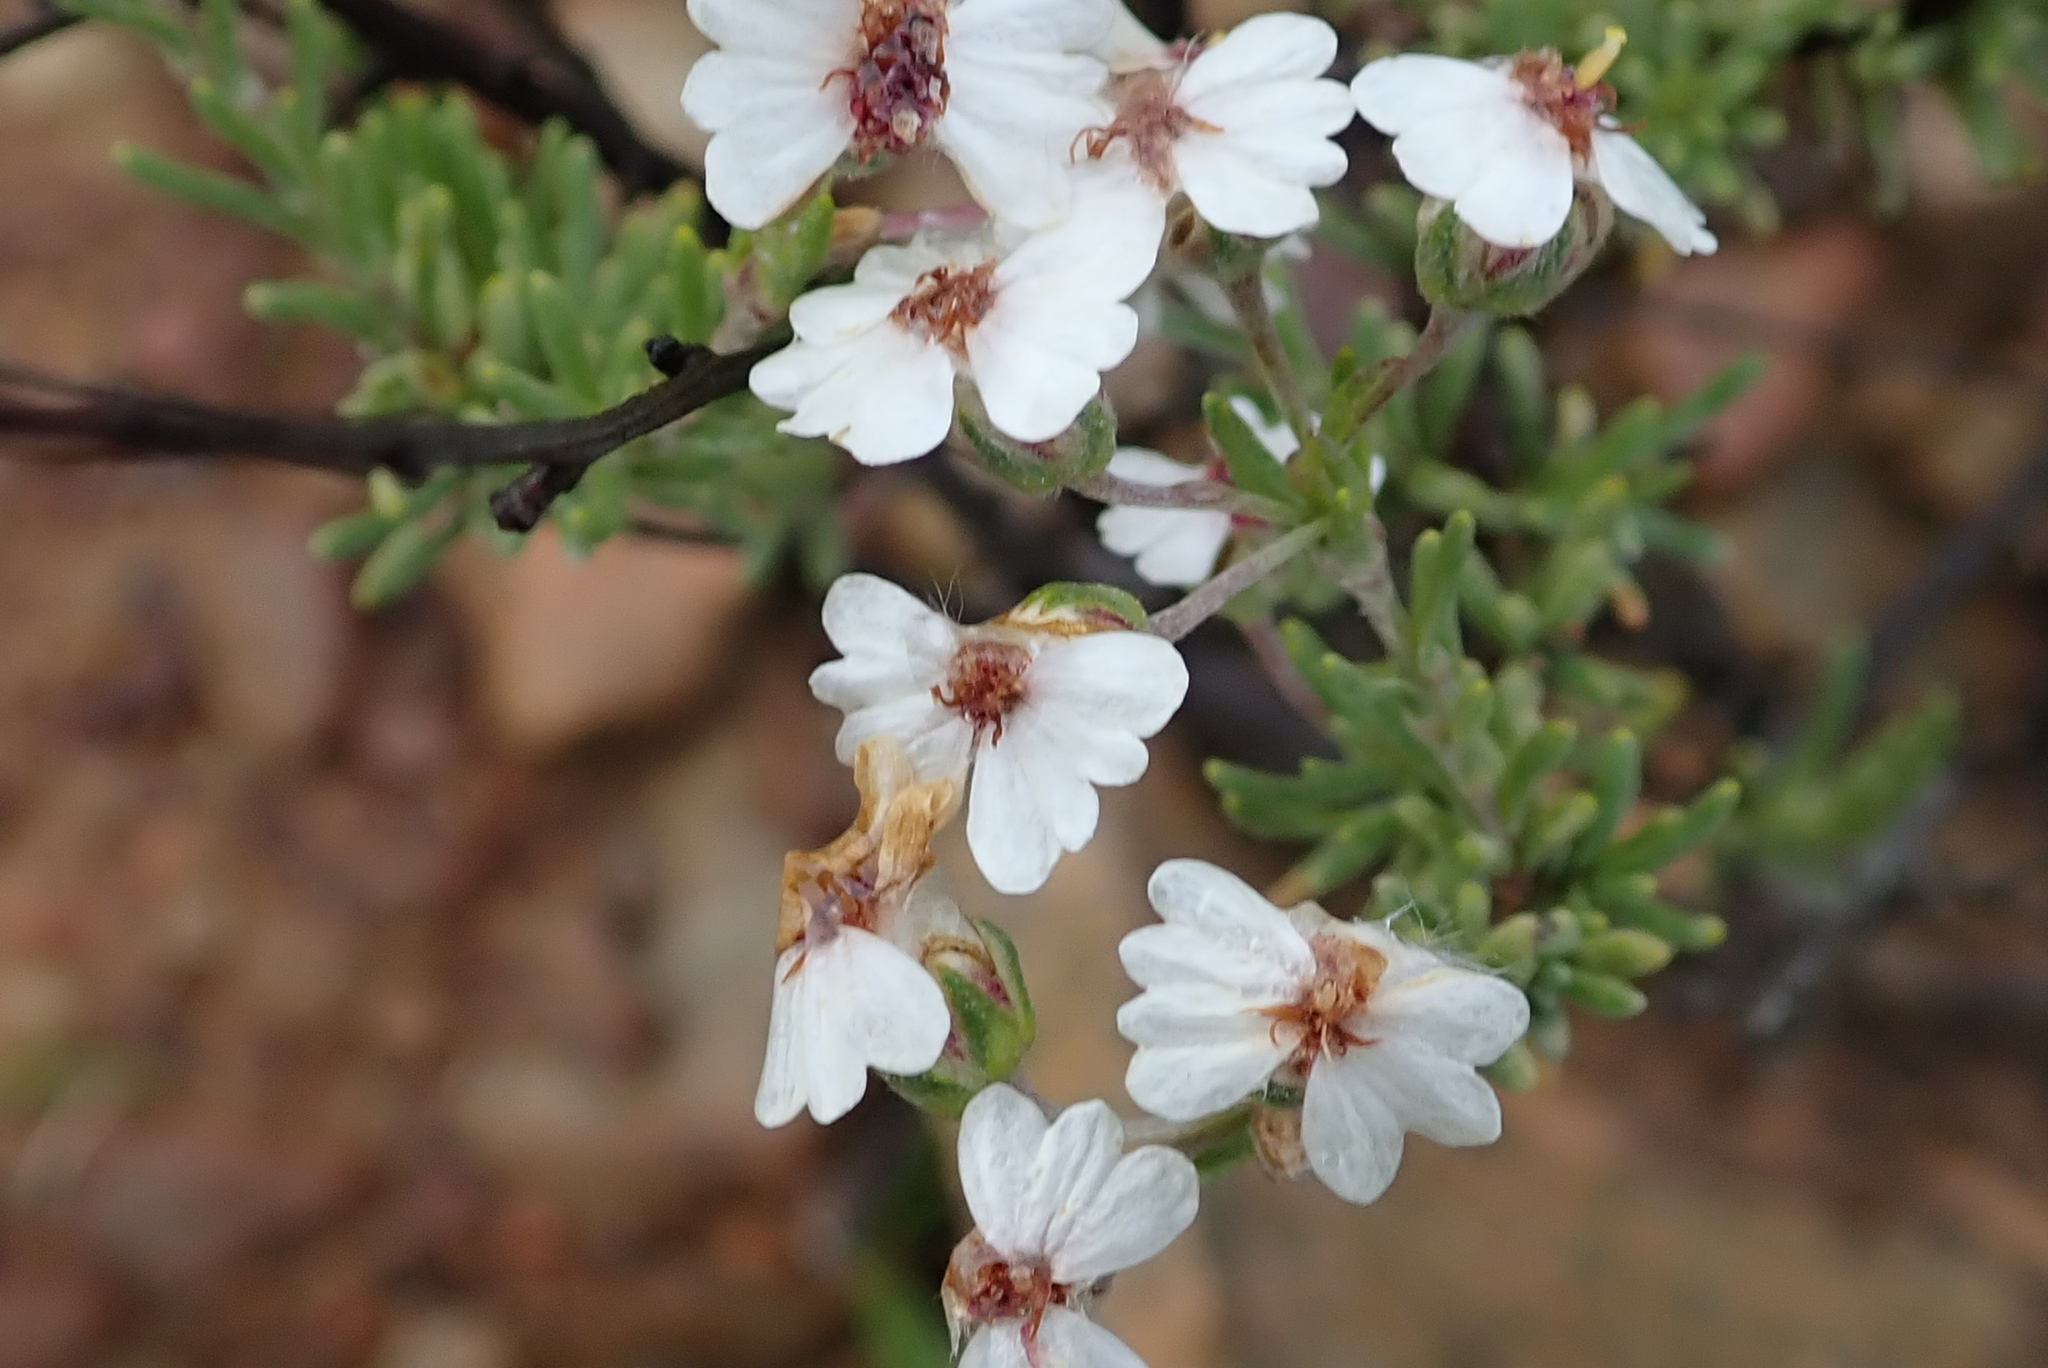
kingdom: Plantae
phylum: Tracheophyta
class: Magnoliopsida
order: Asterales
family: Asteraceae
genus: Eriocephalus
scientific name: Eriocephalus africanus
